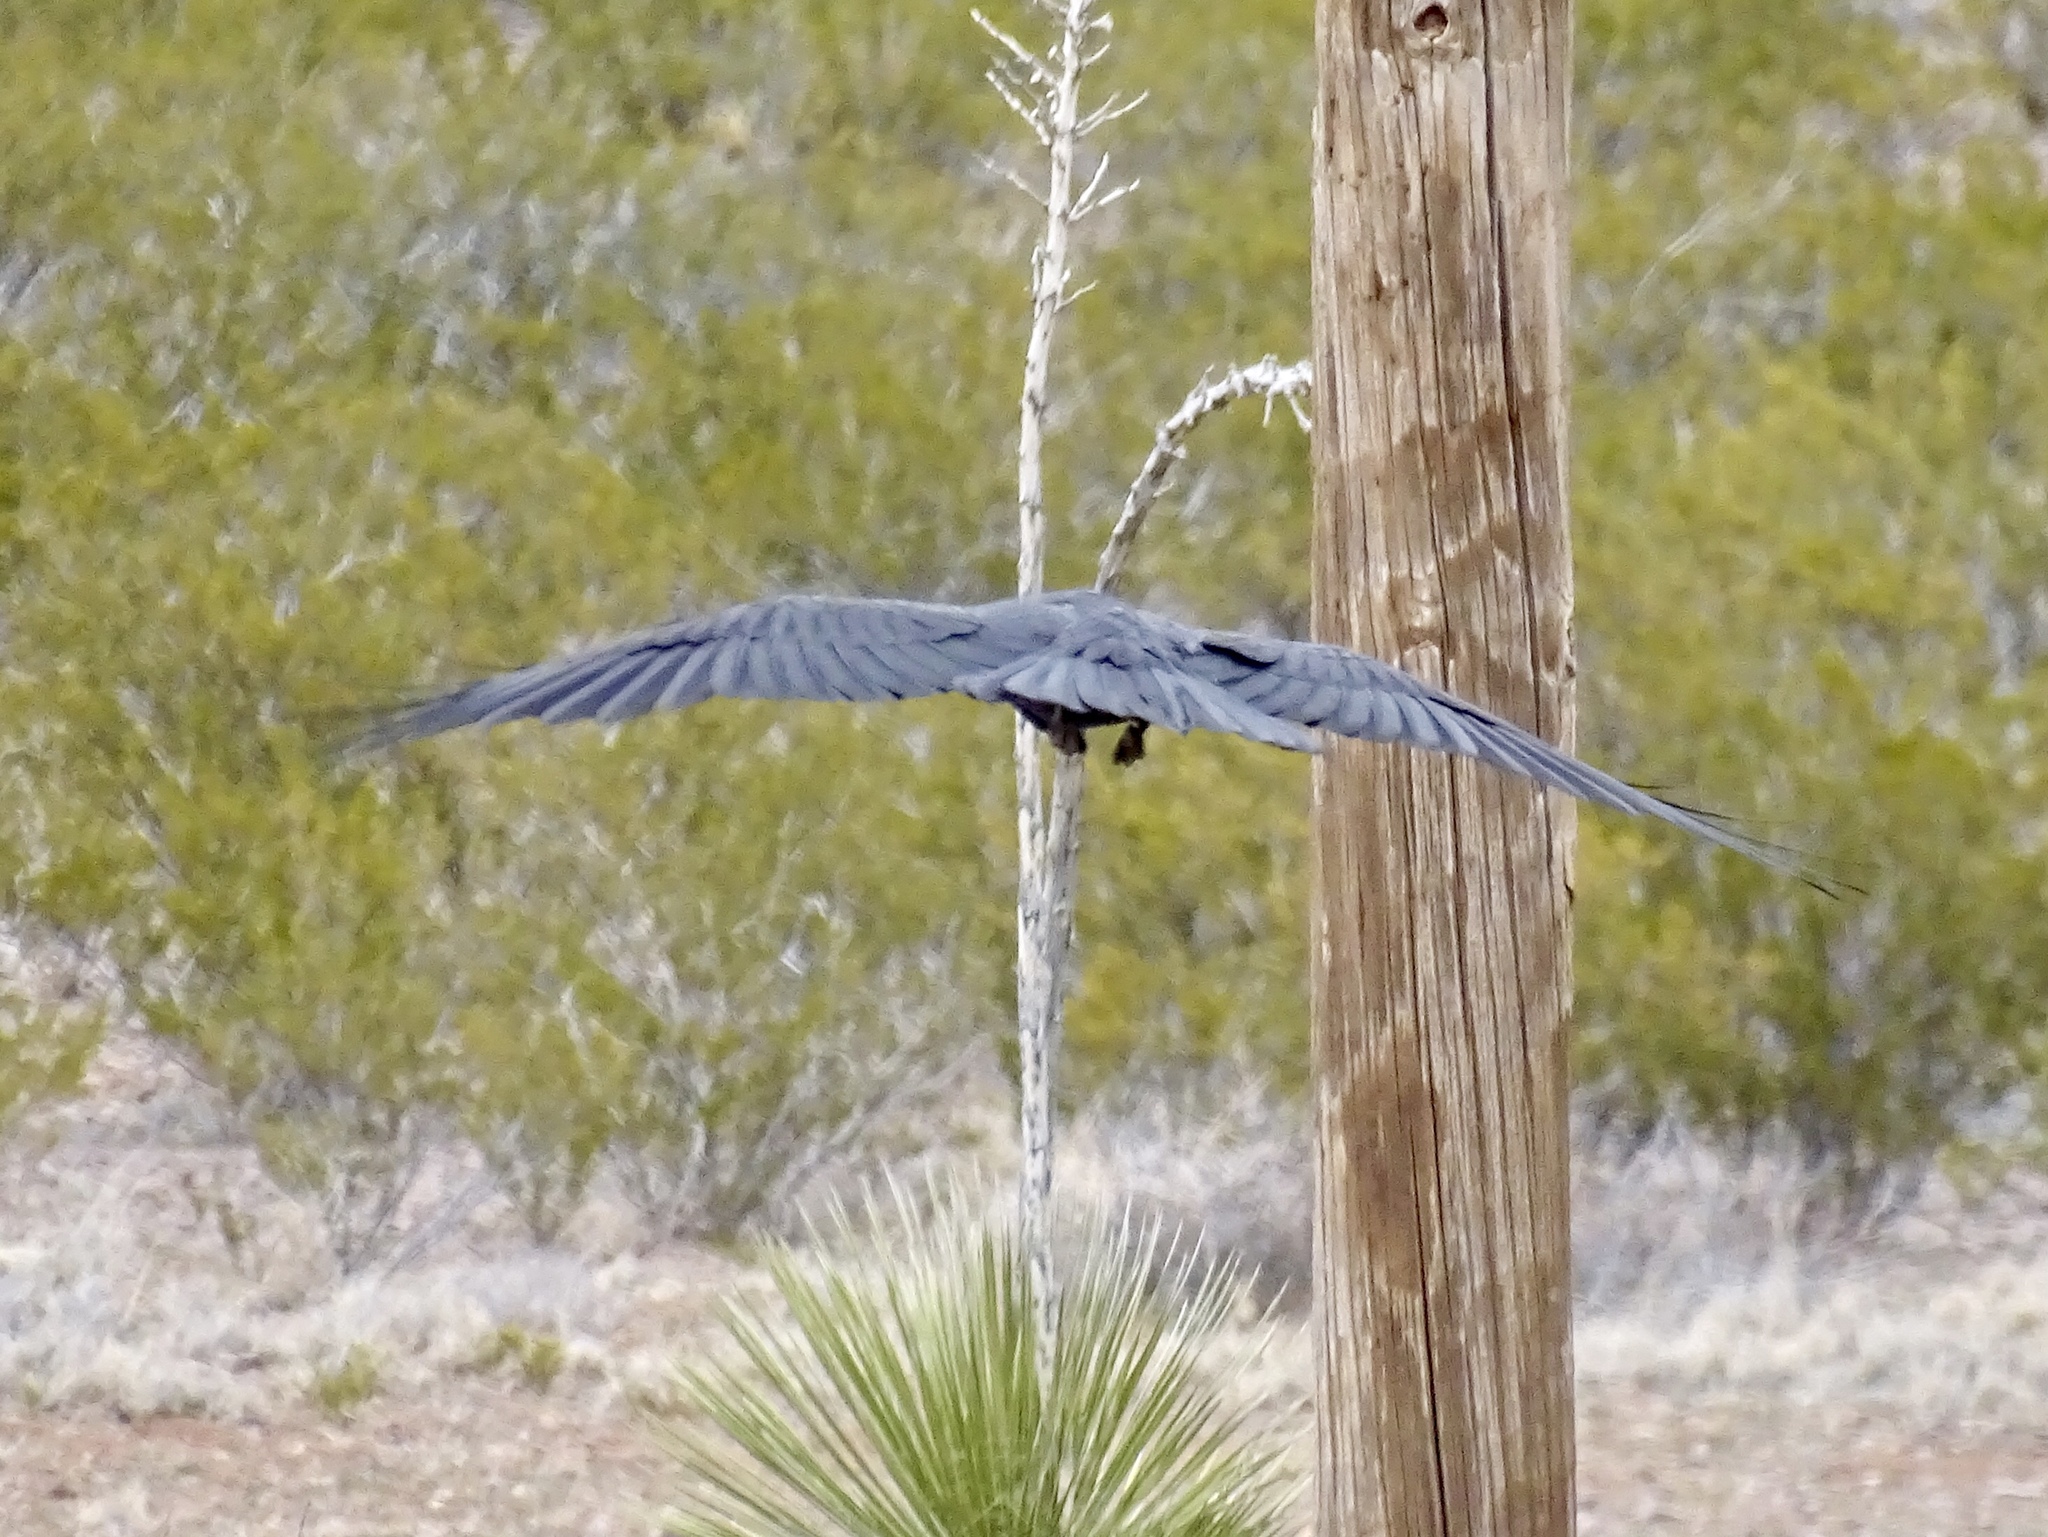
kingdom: Animalia
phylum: Chordata
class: Aves
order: Passeriformes
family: Corvidae
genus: Corvus
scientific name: Corvus cryptoleucus
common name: Chihuahuan raven
